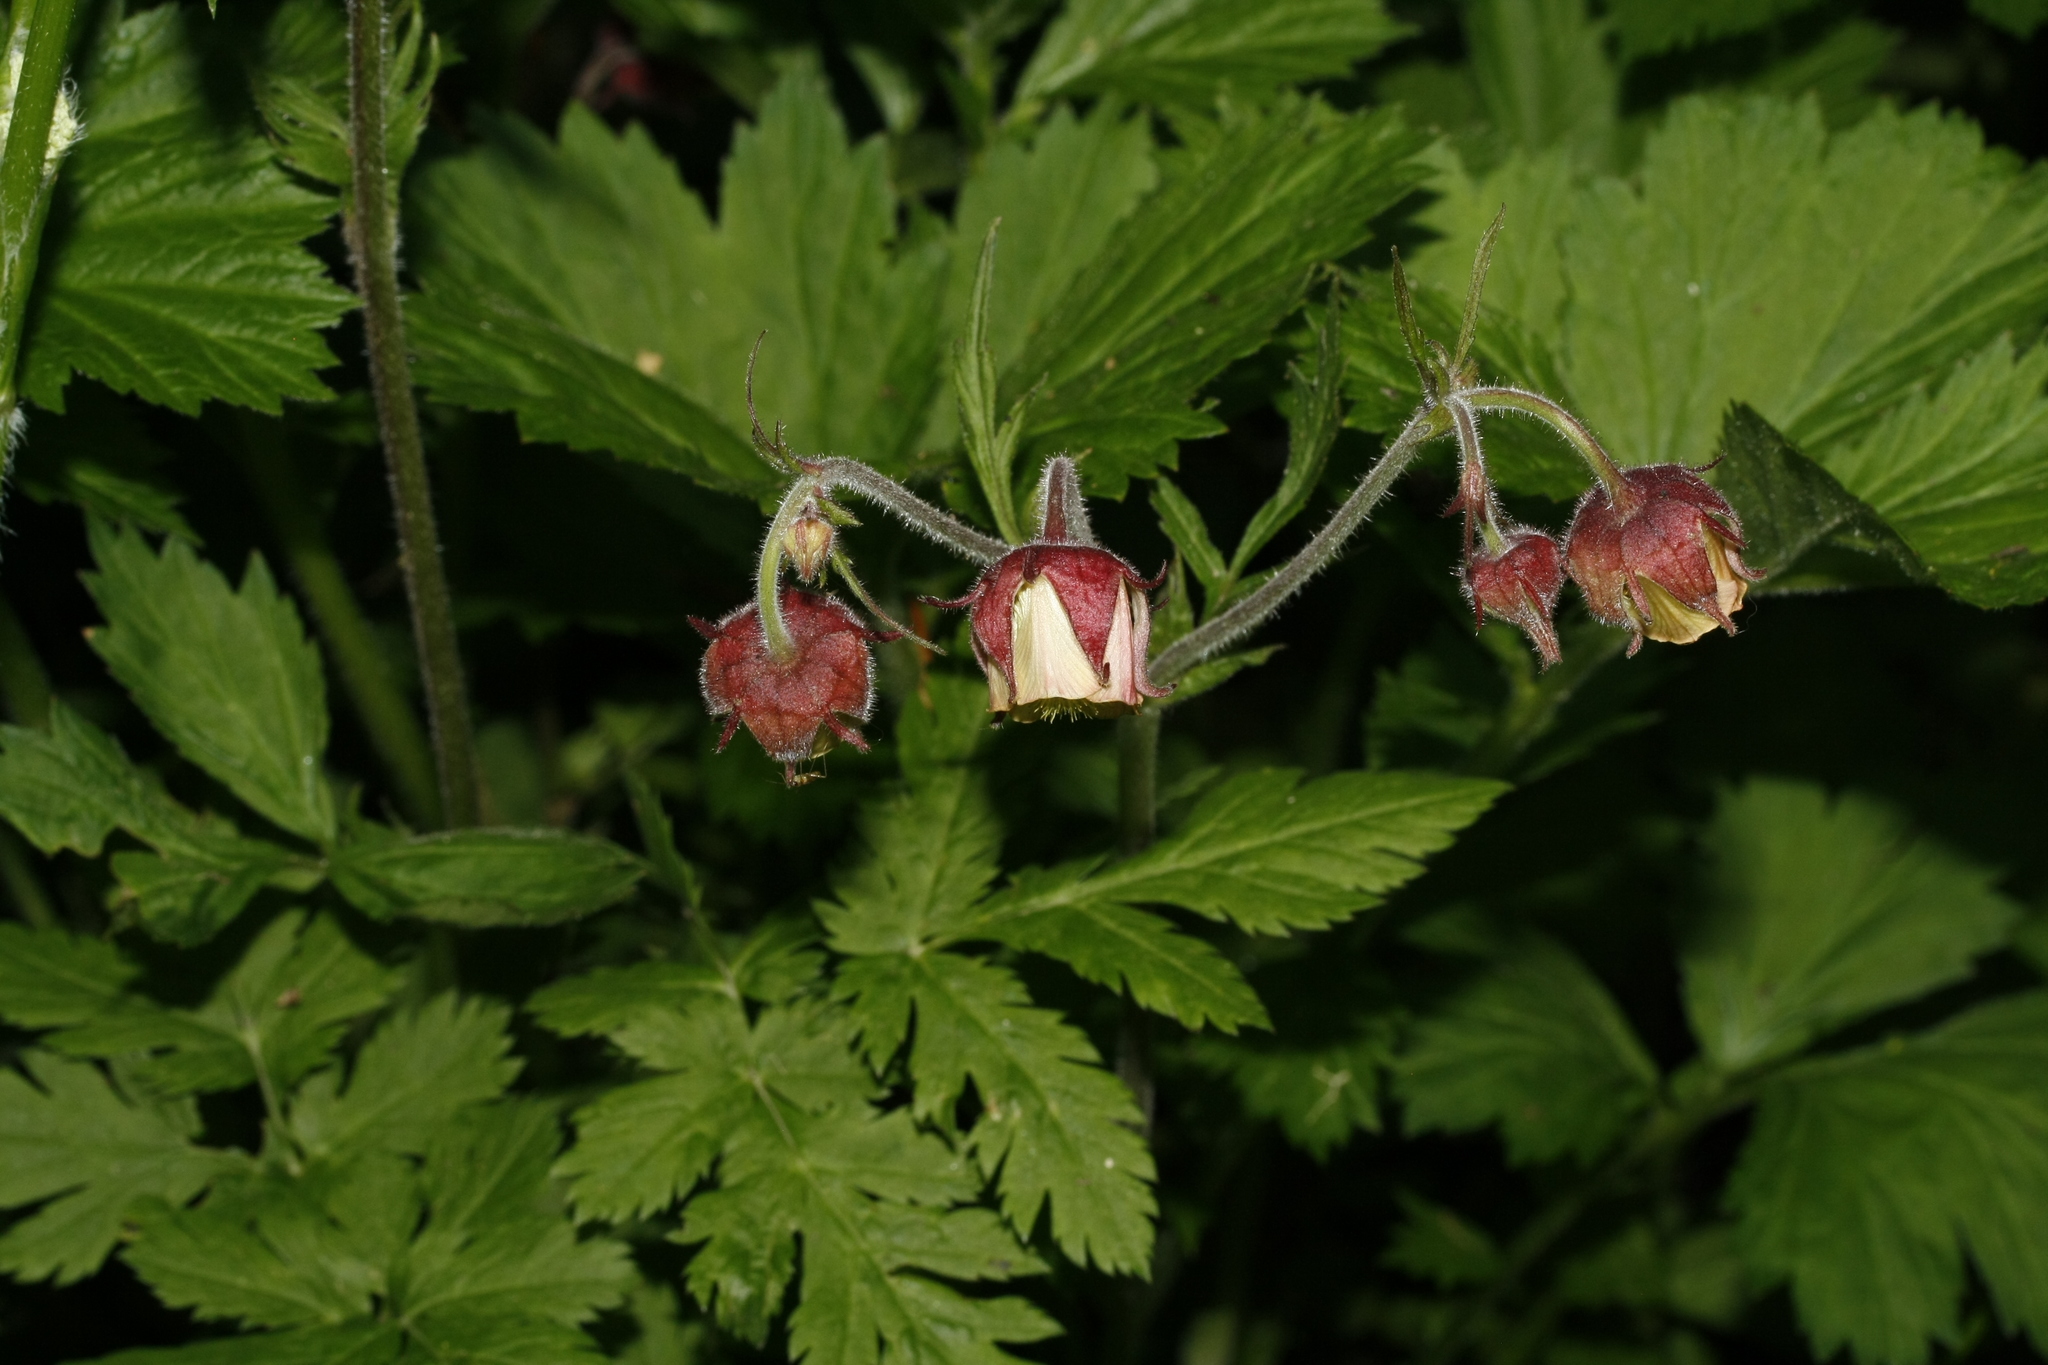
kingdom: Plantae
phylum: Tracheophyta
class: Magnoliopsida
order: Rosales
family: Rosaceae
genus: Geum
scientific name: Geum rivale
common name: Water avens
